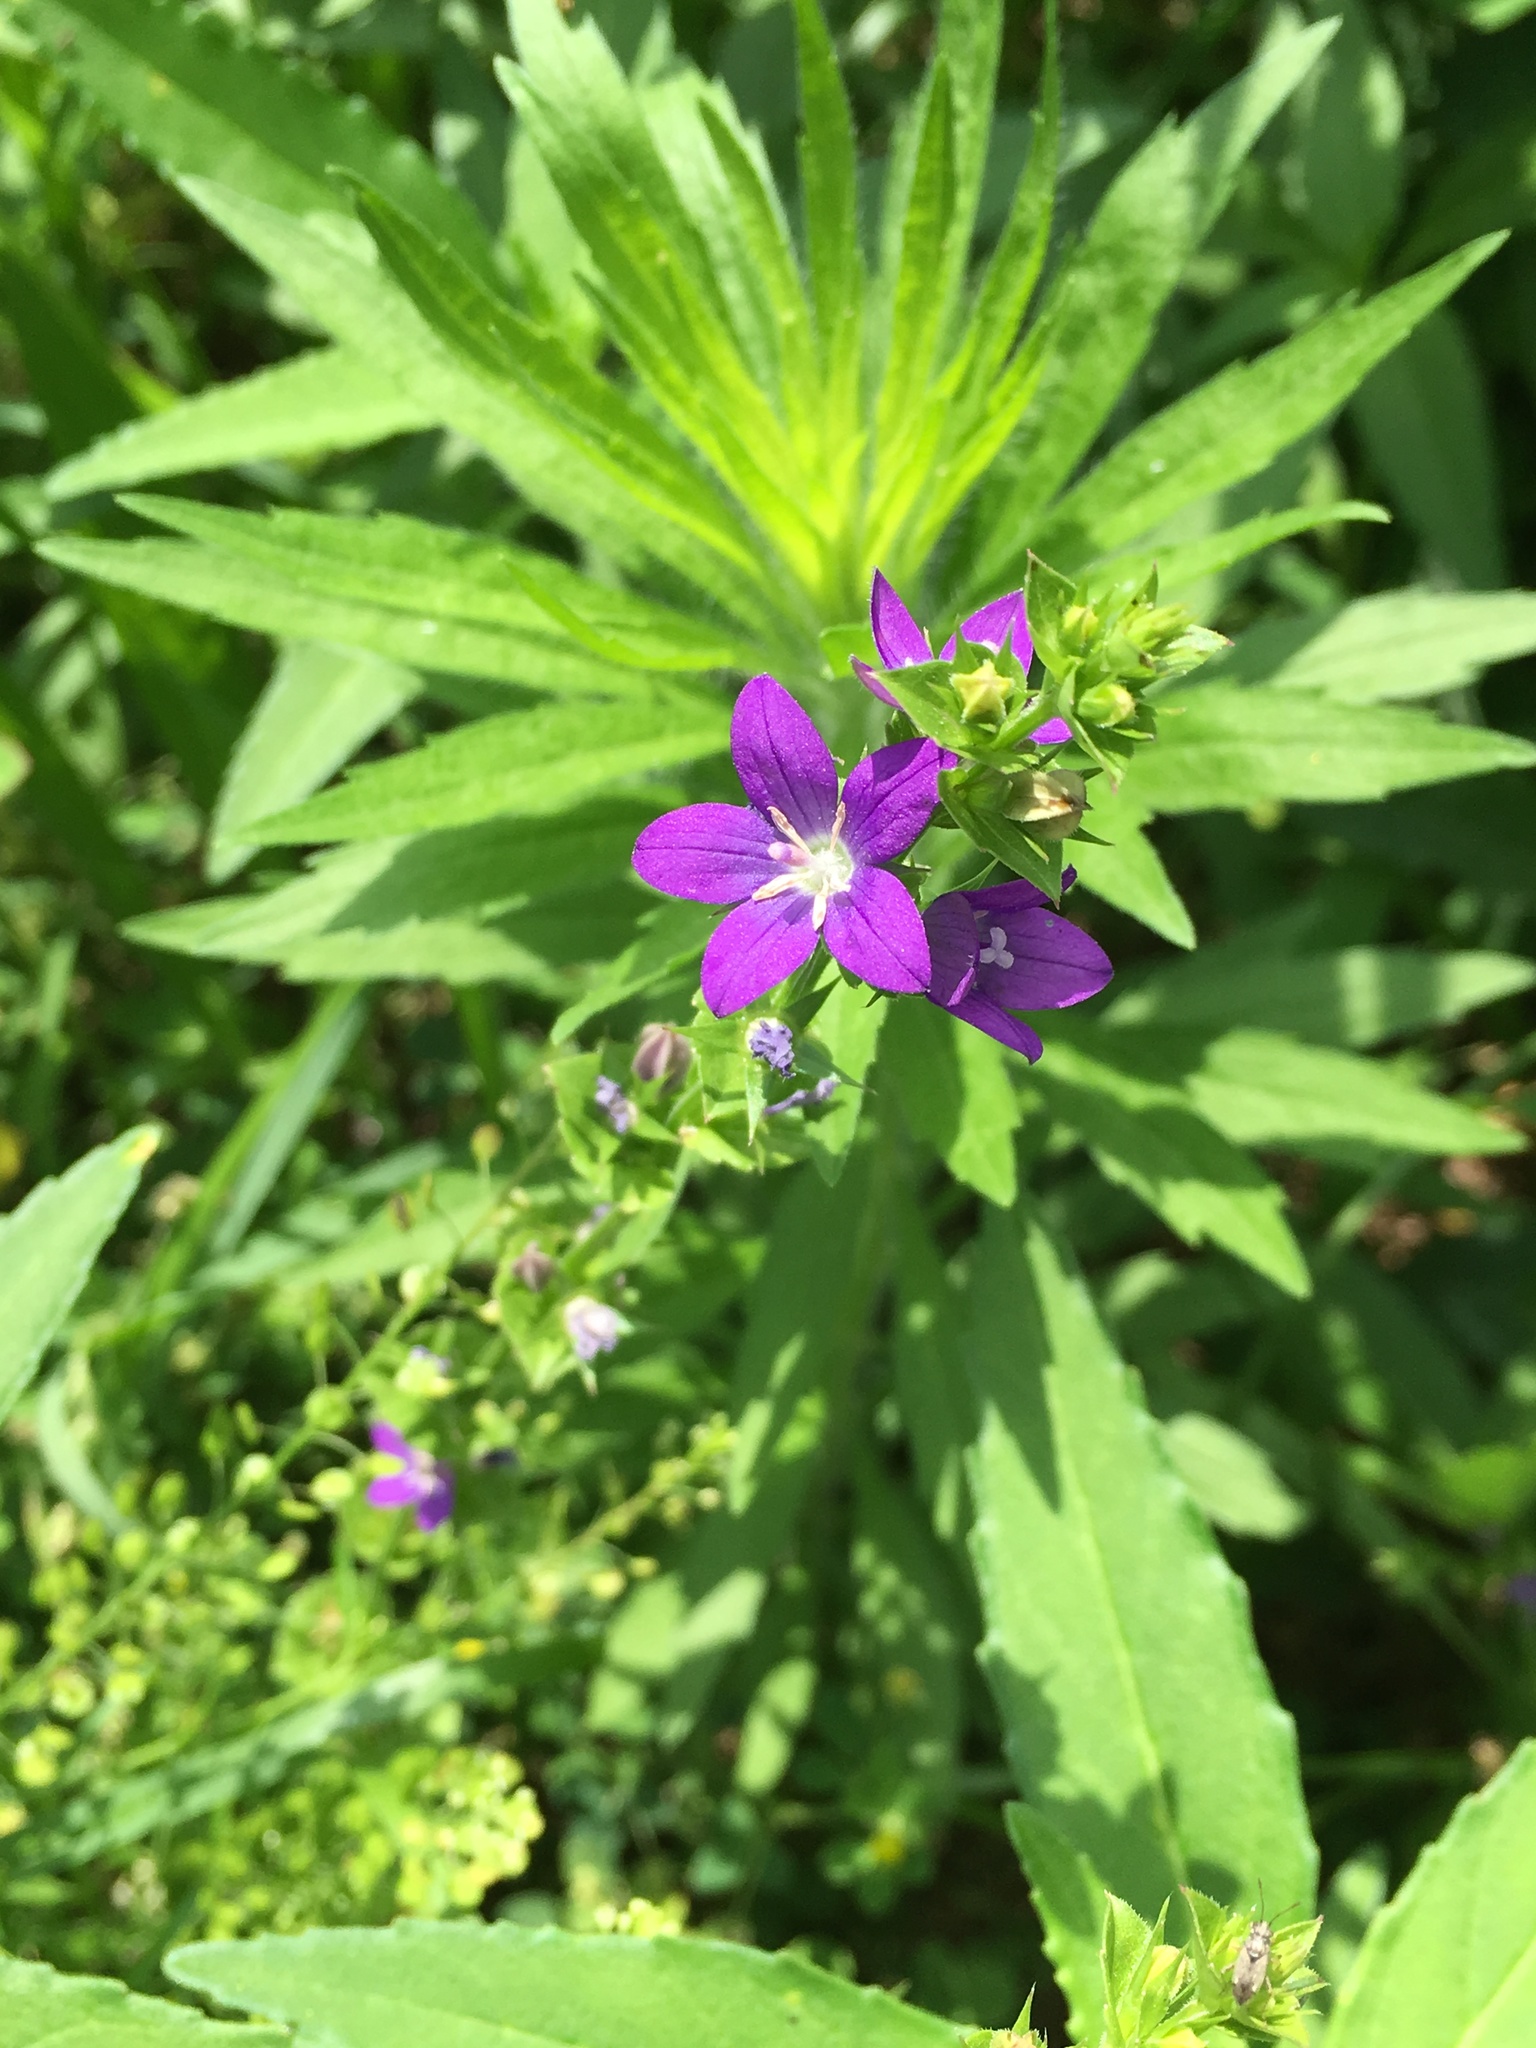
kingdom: Plantae
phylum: Tracheophyta
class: Magnoliopsida
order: Asterales
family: Campanulaceae
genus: Triodanis
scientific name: Triodanis perfoliata
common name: Clasping venus' looking-glass
